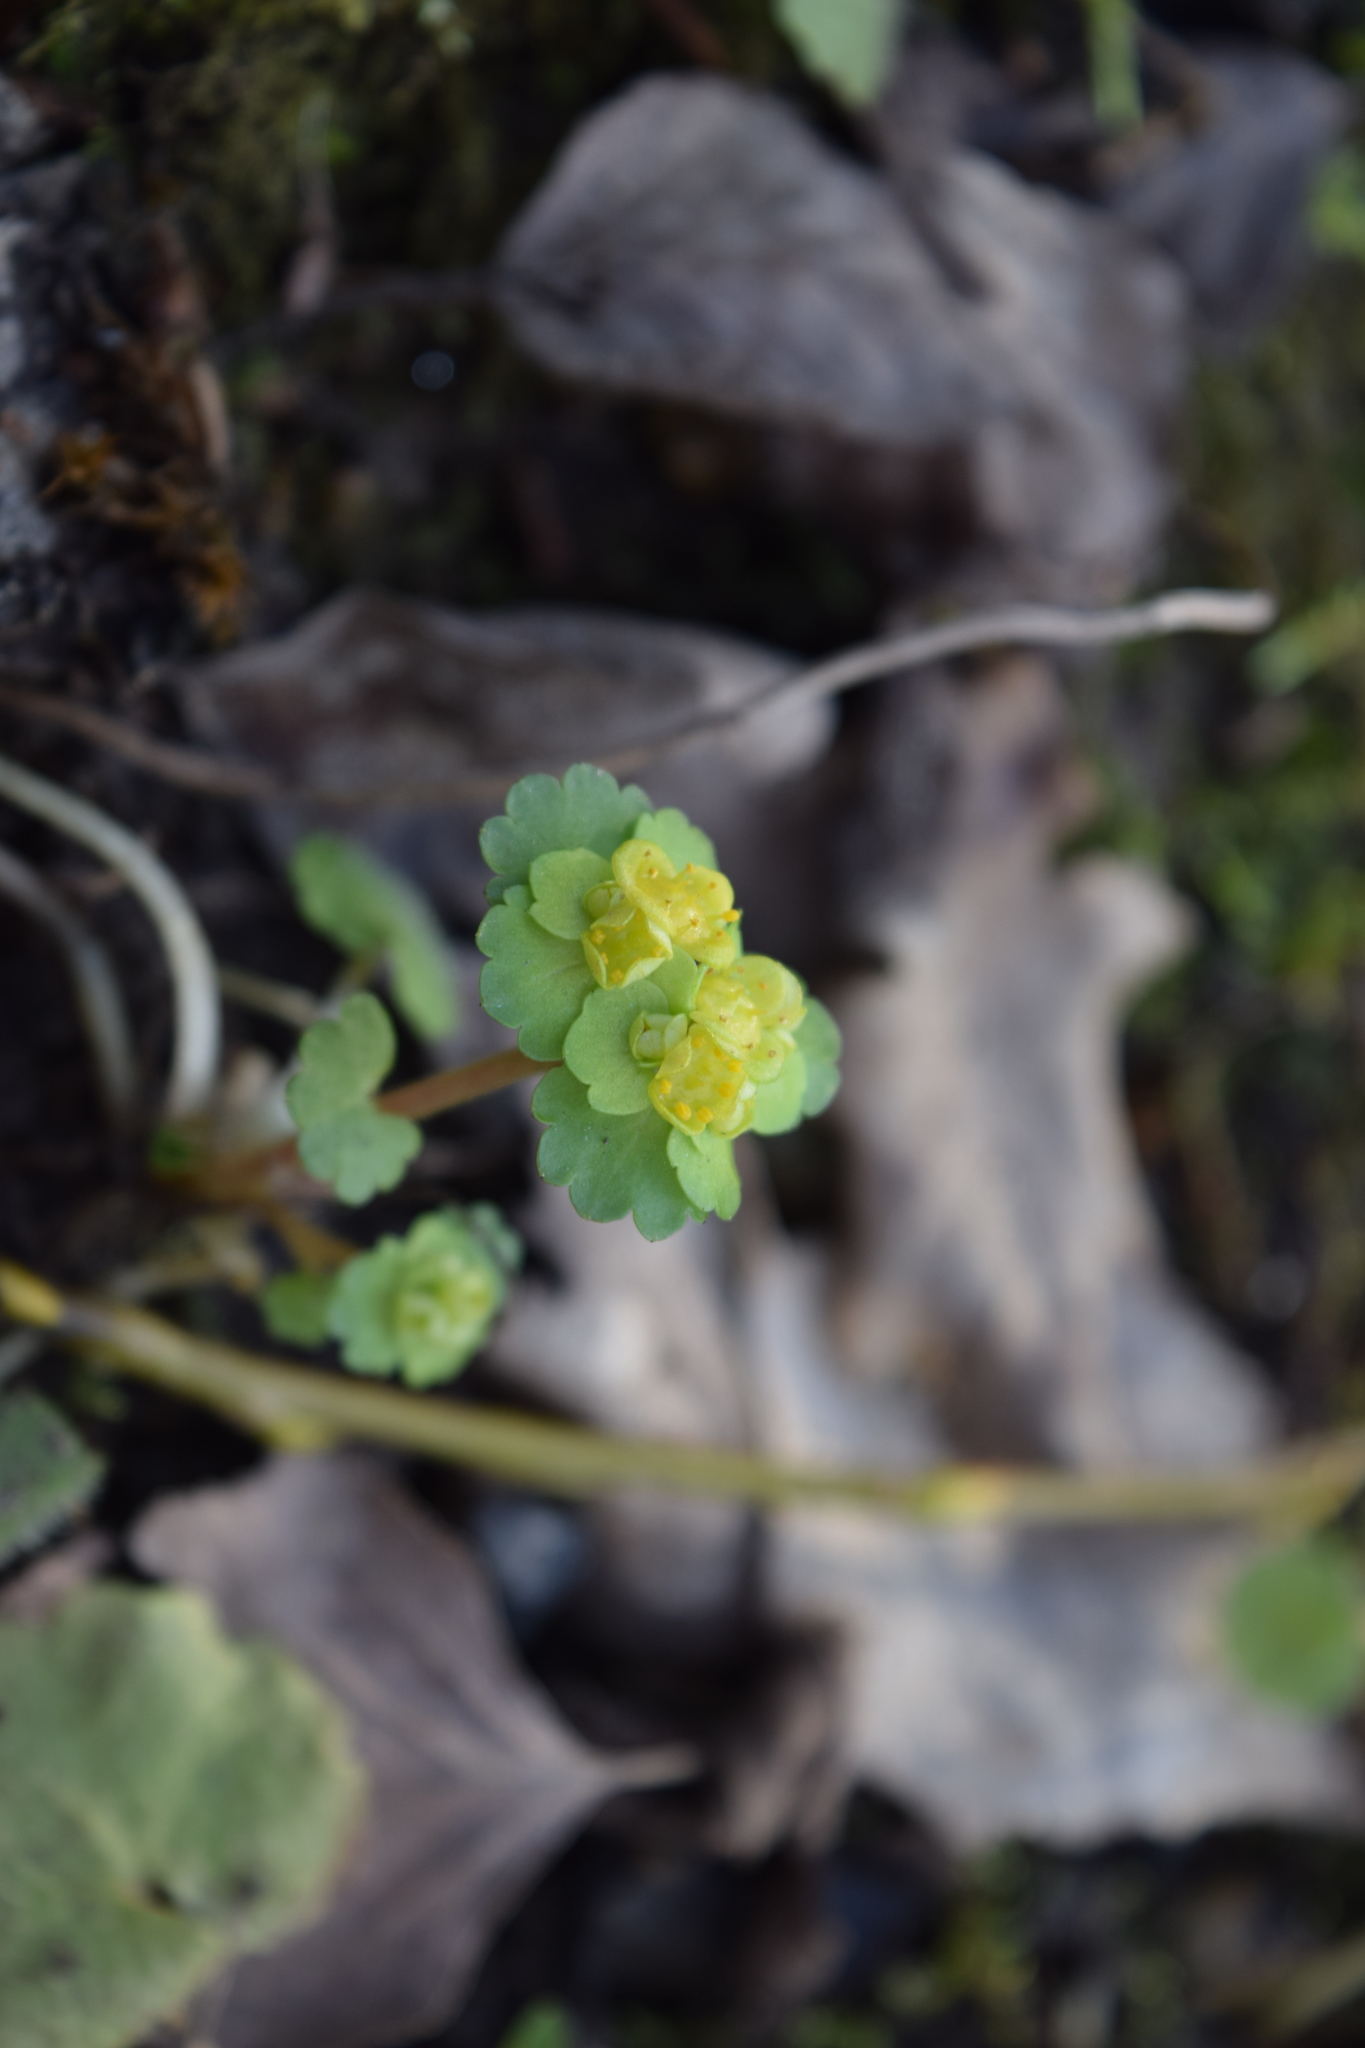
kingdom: Plantae
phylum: Tracheophyta
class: Magnoliopsida
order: Saxifragales
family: Saxifragaceae
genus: Chrysosplenium
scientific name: Chrysosplenium alternifolium
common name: Alternate-leaved golden-saxifrage
